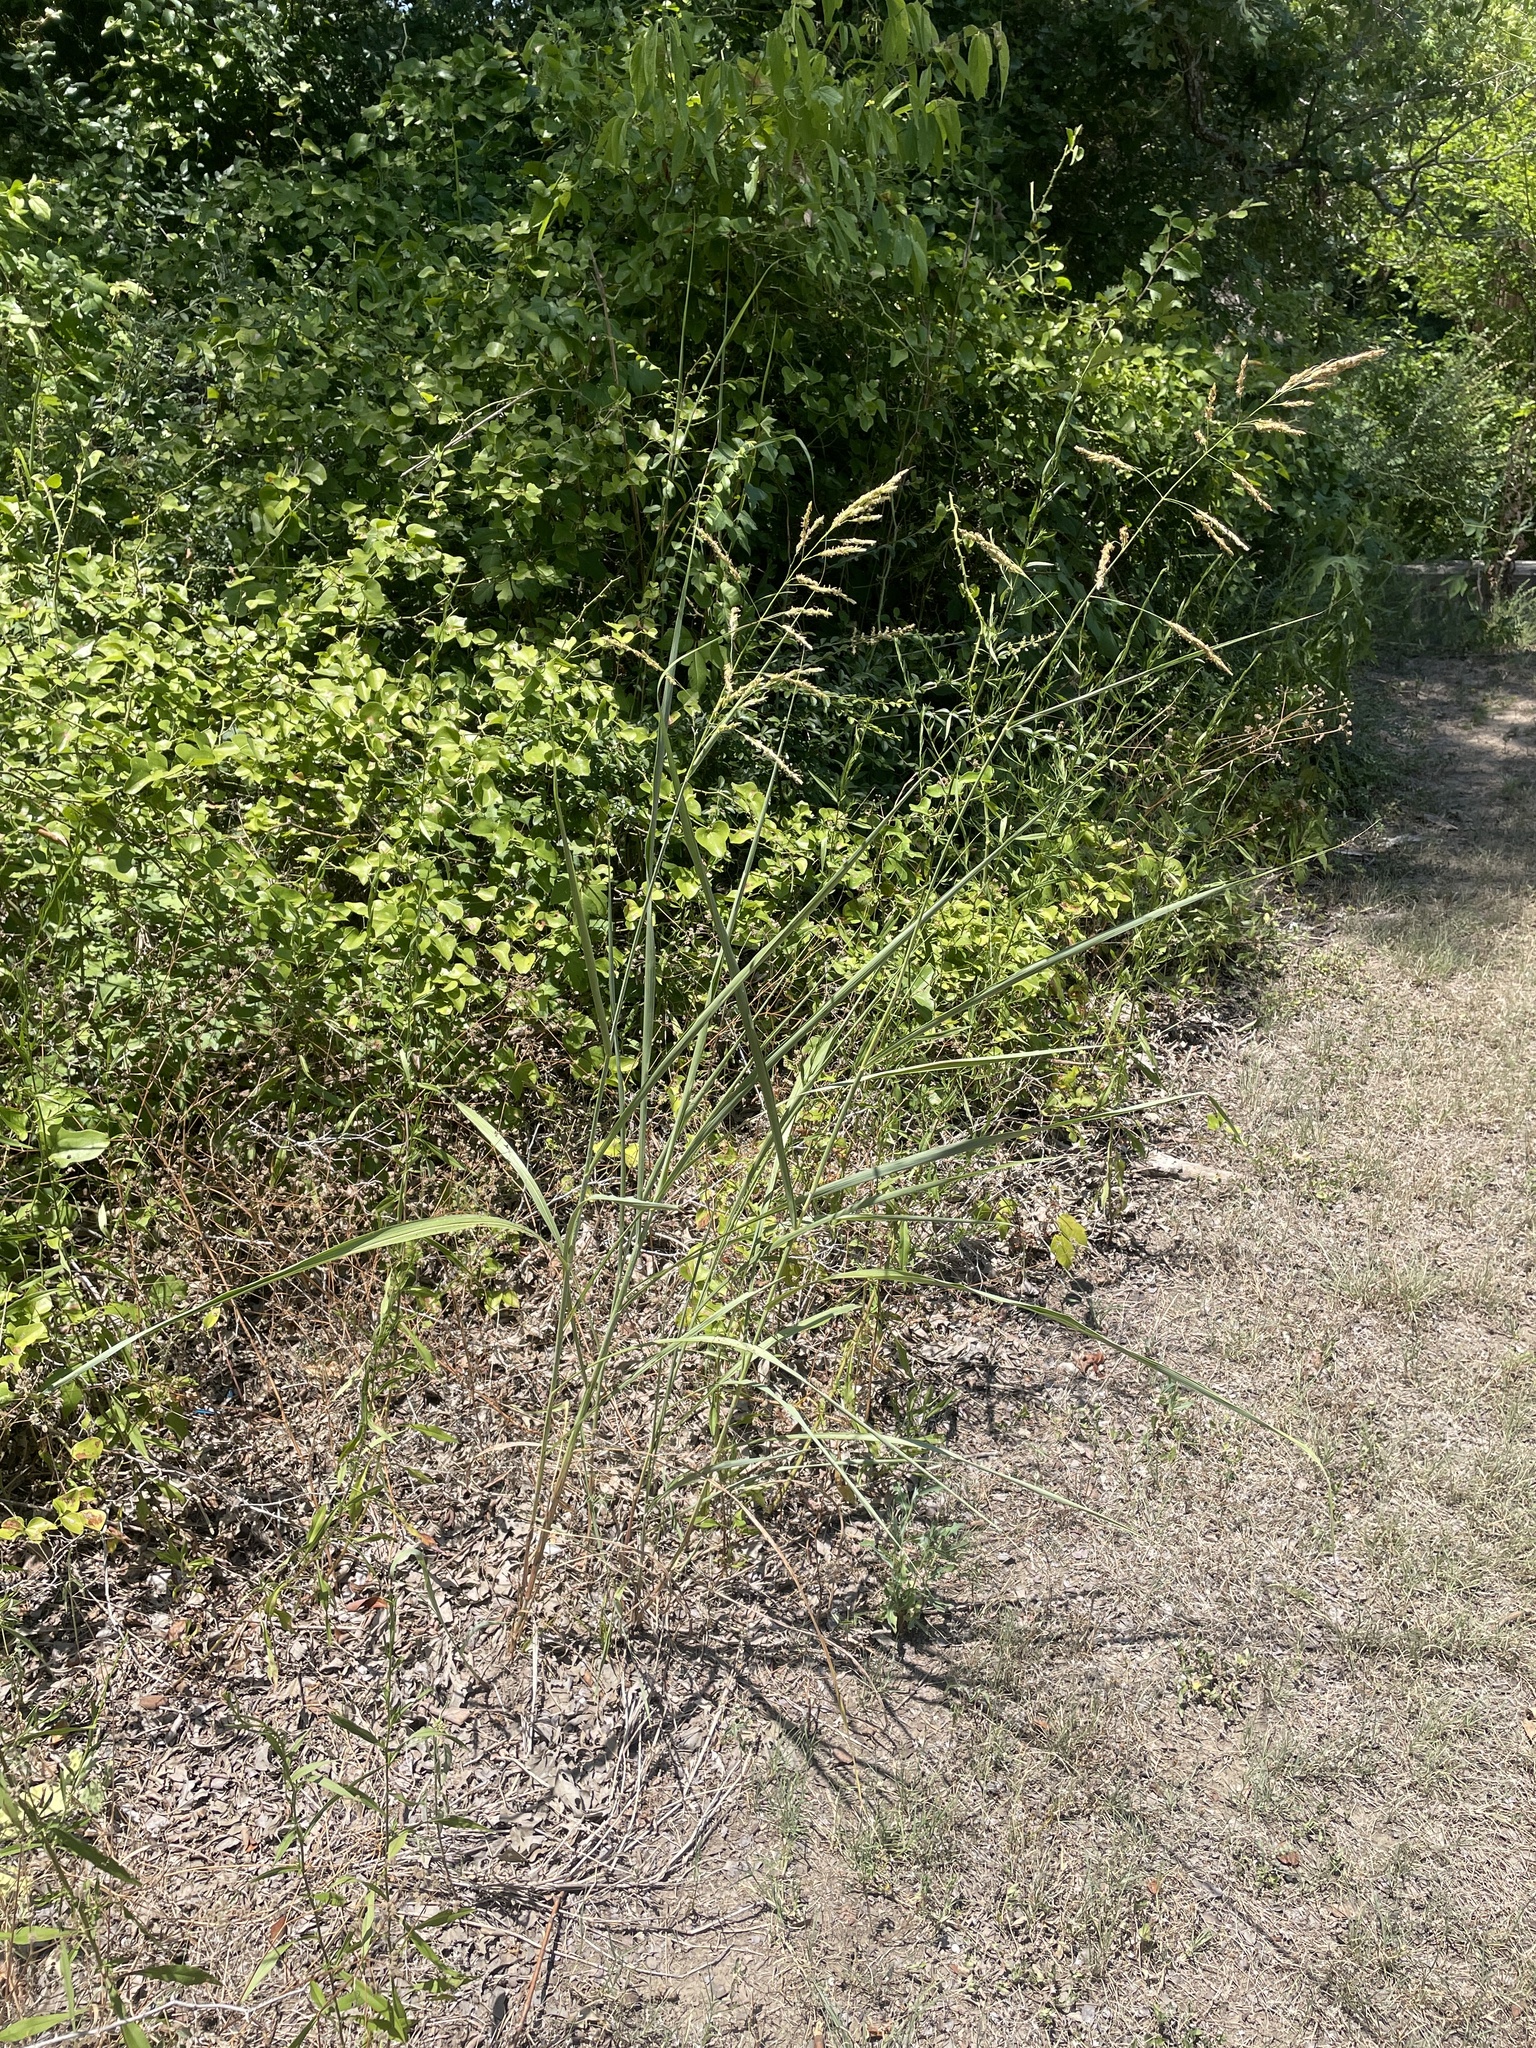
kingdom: Plantae
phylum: Tracheophyta
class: Liliopsida
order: Poales
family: Poaceae
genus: Sorghum
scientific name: Sorghum halepense
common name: Johnson-grass
